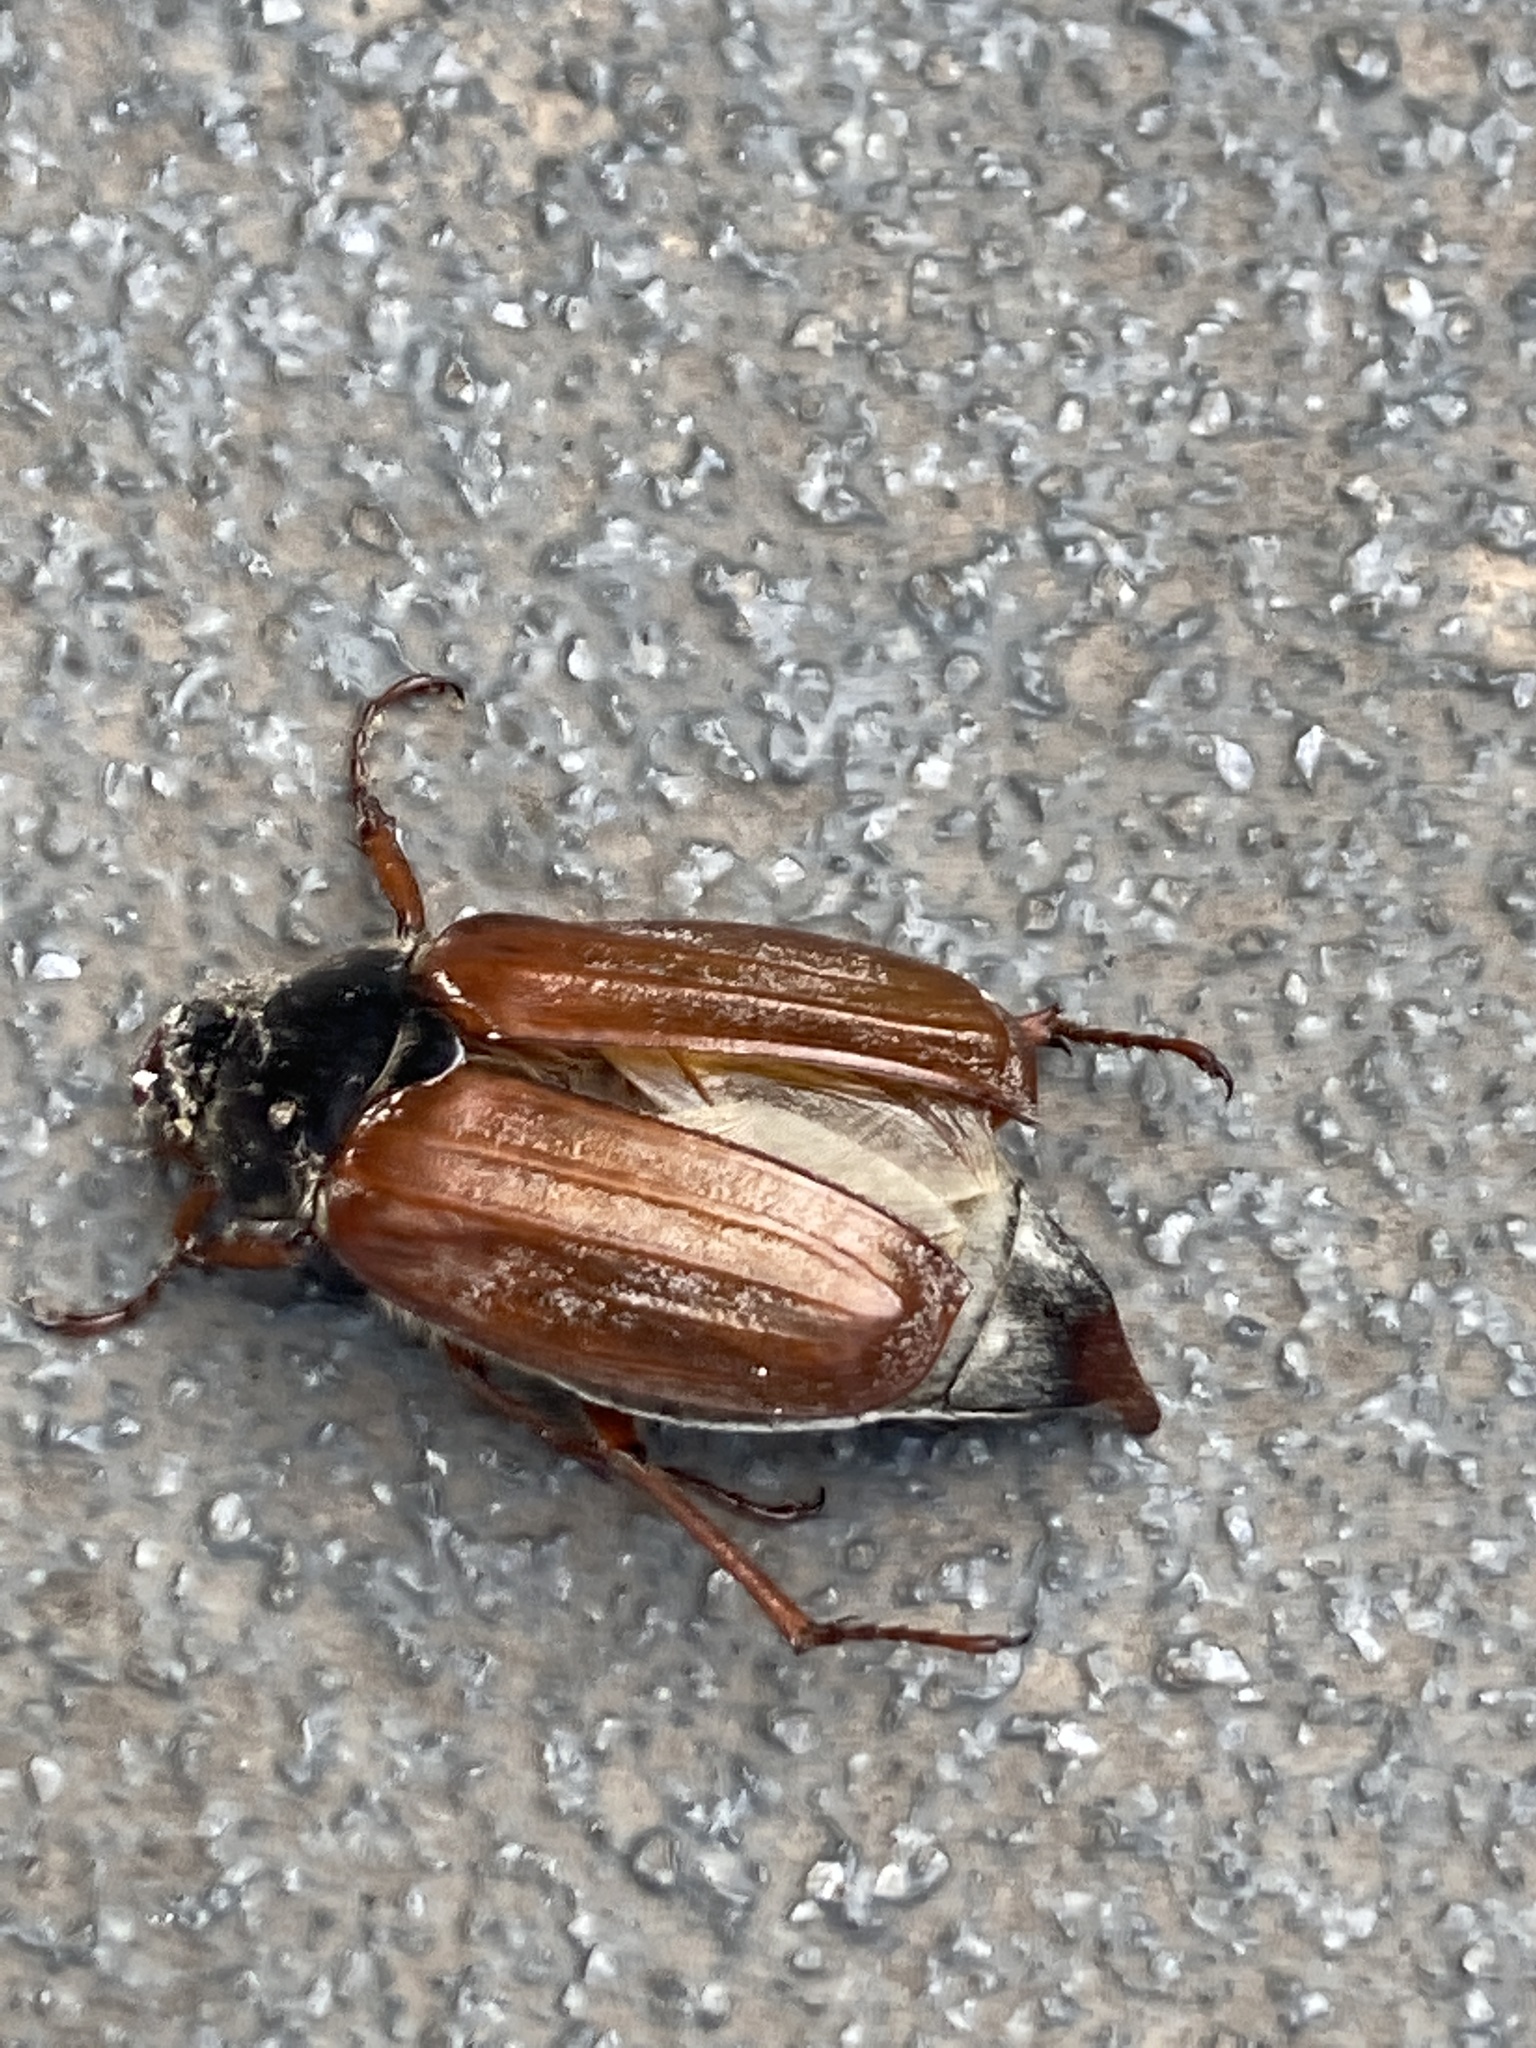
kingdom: Animalia
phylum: Arthropoda
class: Insecta
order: Coleoptera
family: Scarabaeidae
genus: Melolontha
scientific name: Melolontha melolontha
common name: Cockchafer maybeetle
